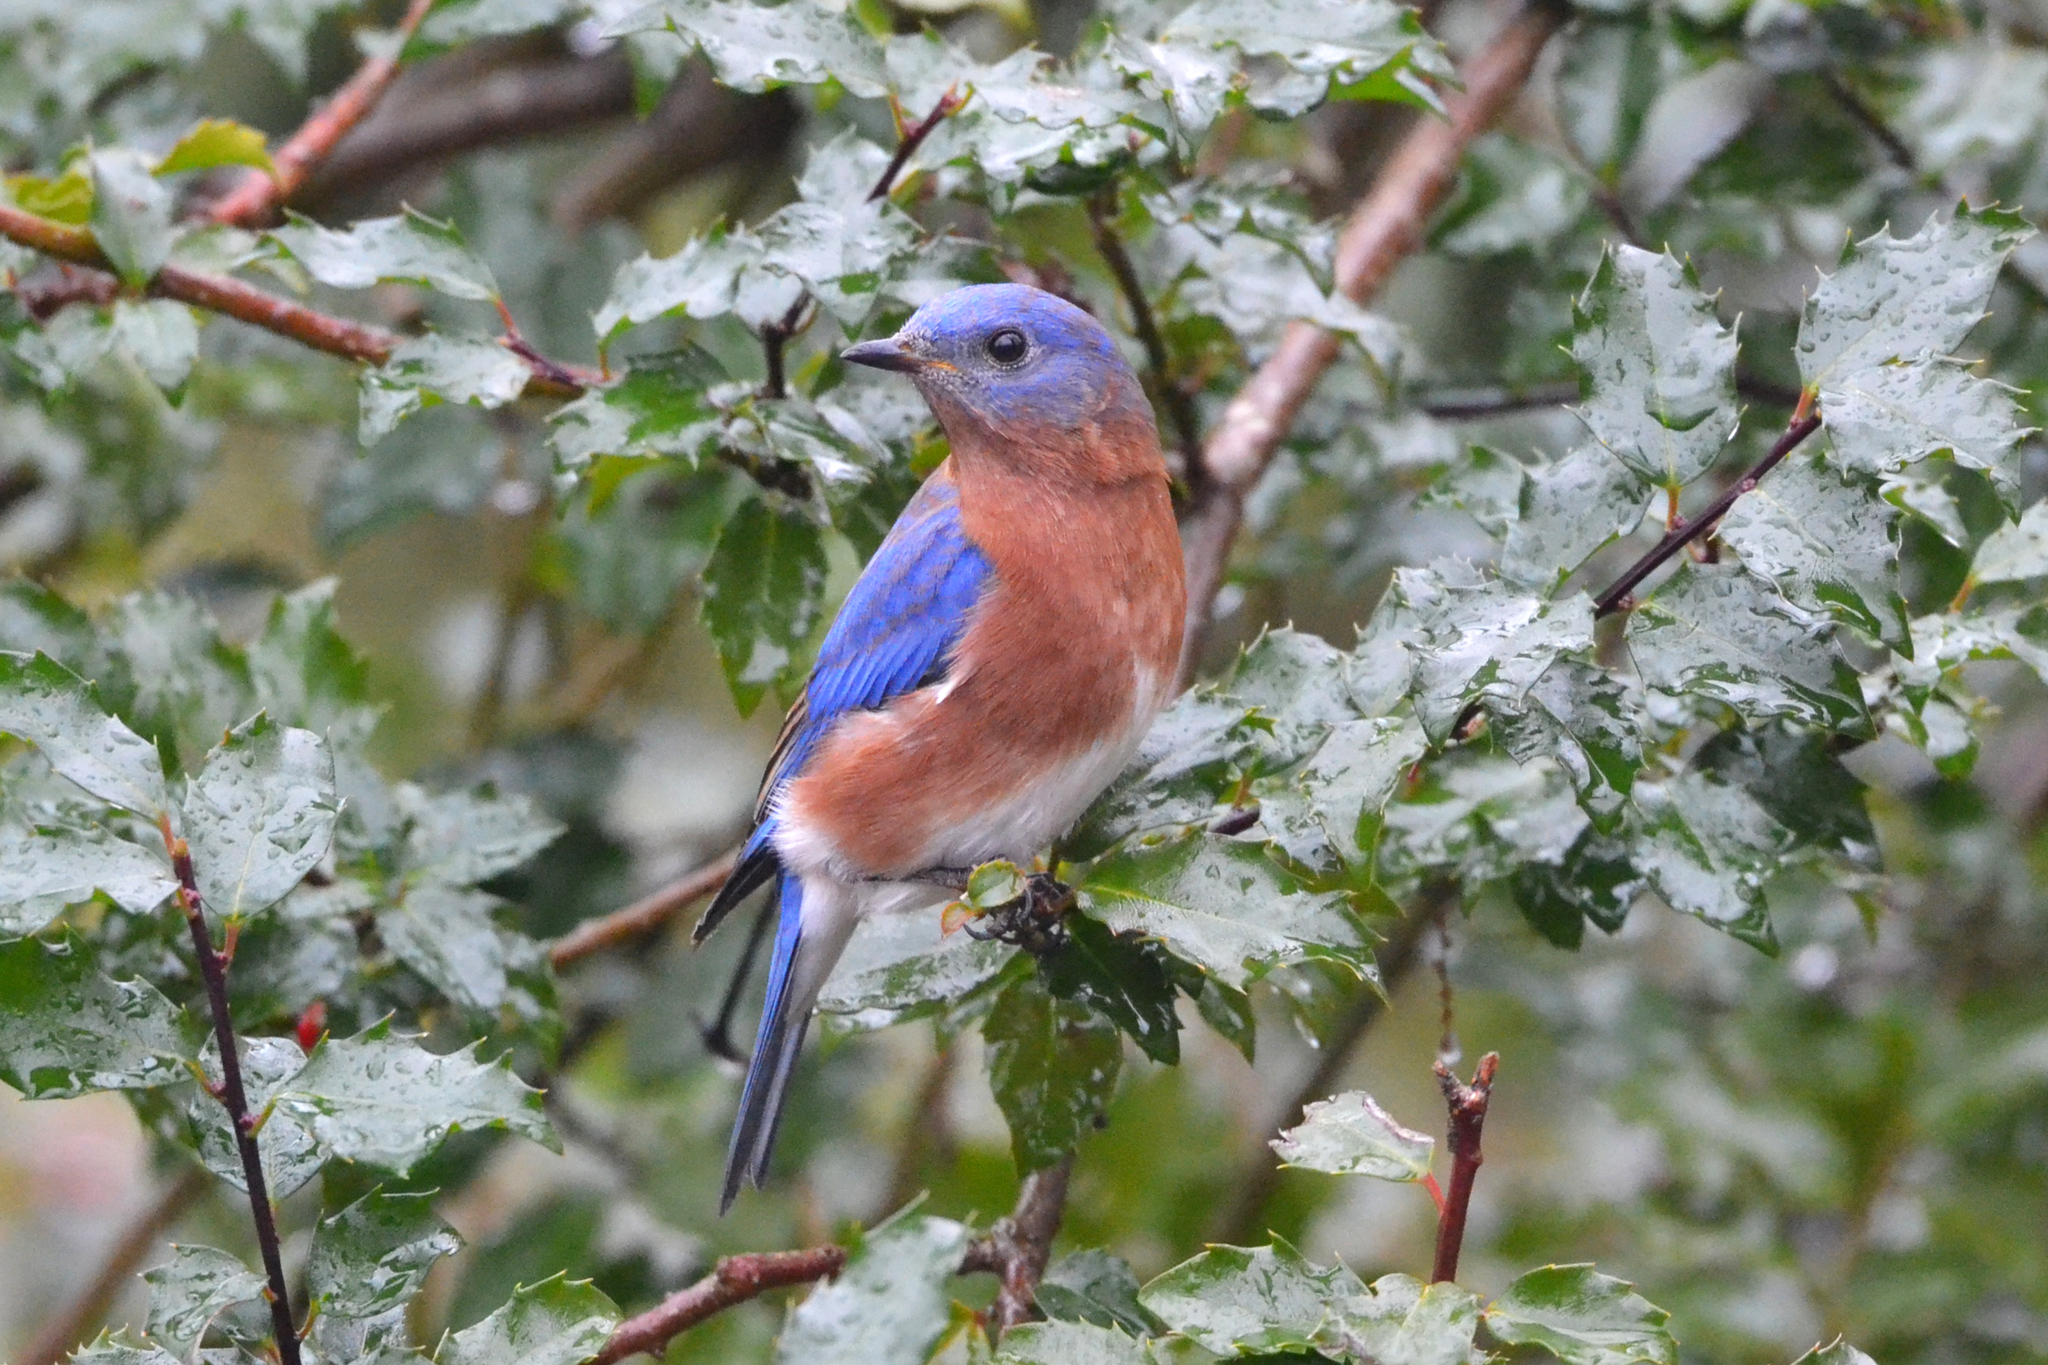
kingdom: Animalia
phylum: Chordata
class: Aves
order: Passeriformes
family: Turdidae
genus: Sialia
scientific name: Sialia sialis
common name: Eastern bluebird
